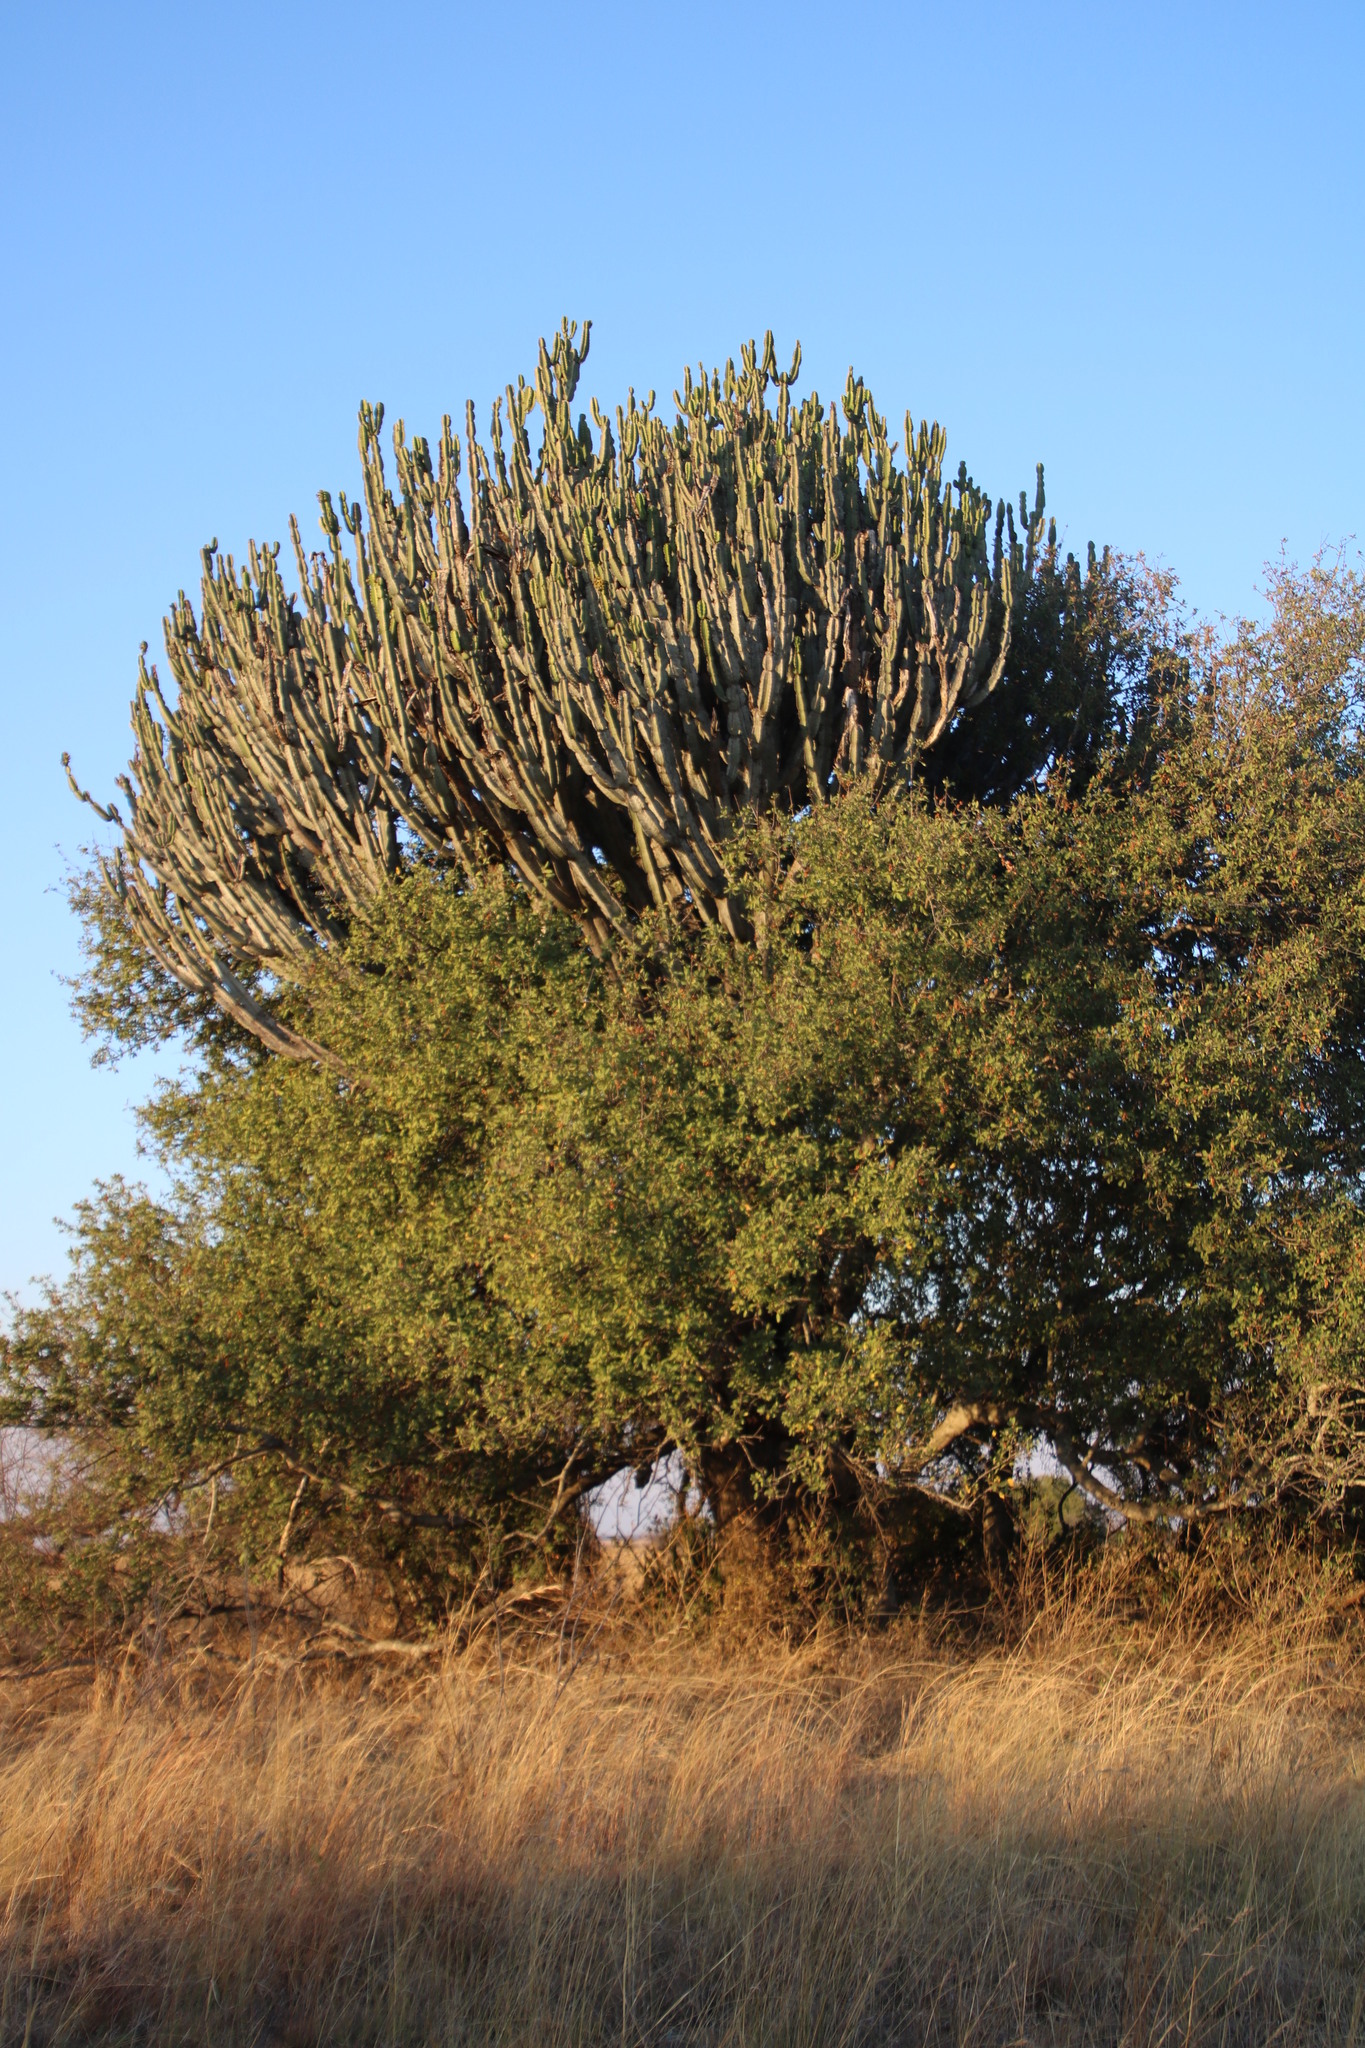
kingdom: Plantae
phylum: Tracheophyta
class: Magnoliopsida
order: Malpighiales
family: Euphorbiaceae
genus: Euphorbia
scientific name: Euphorbia ingens
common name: Cactus spurge
